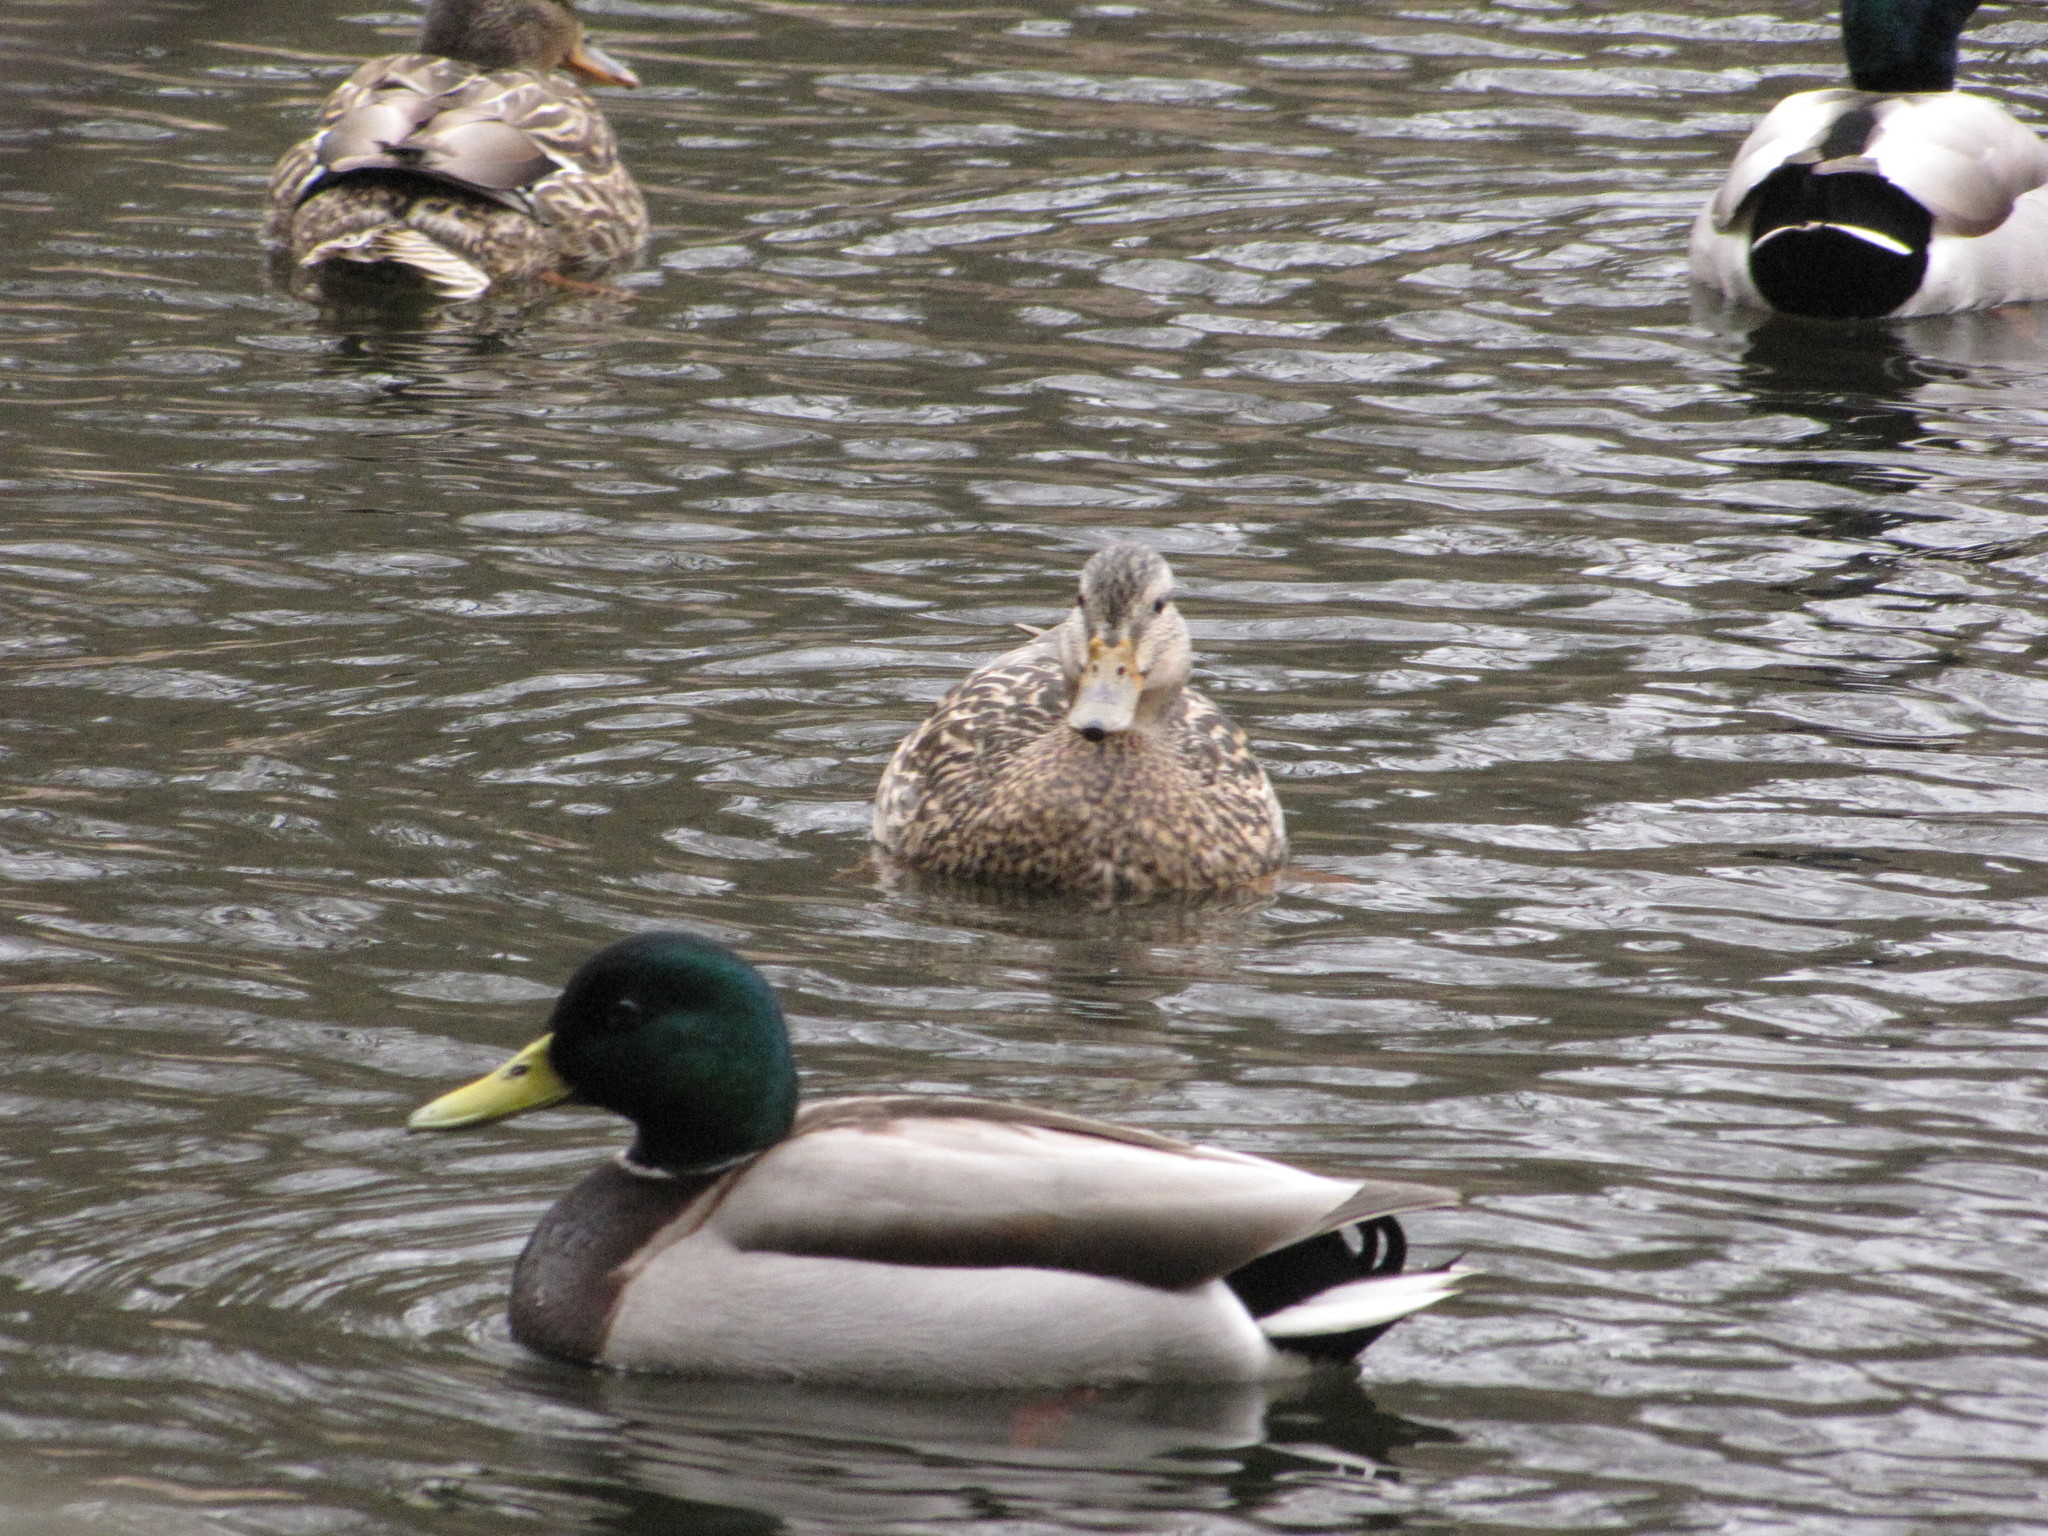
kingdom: Animalia
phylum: Chordata
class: Aves
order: Anseriformes
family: Anatidae
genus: Anas
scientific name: Anas platyrhynchos
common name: Mallard
